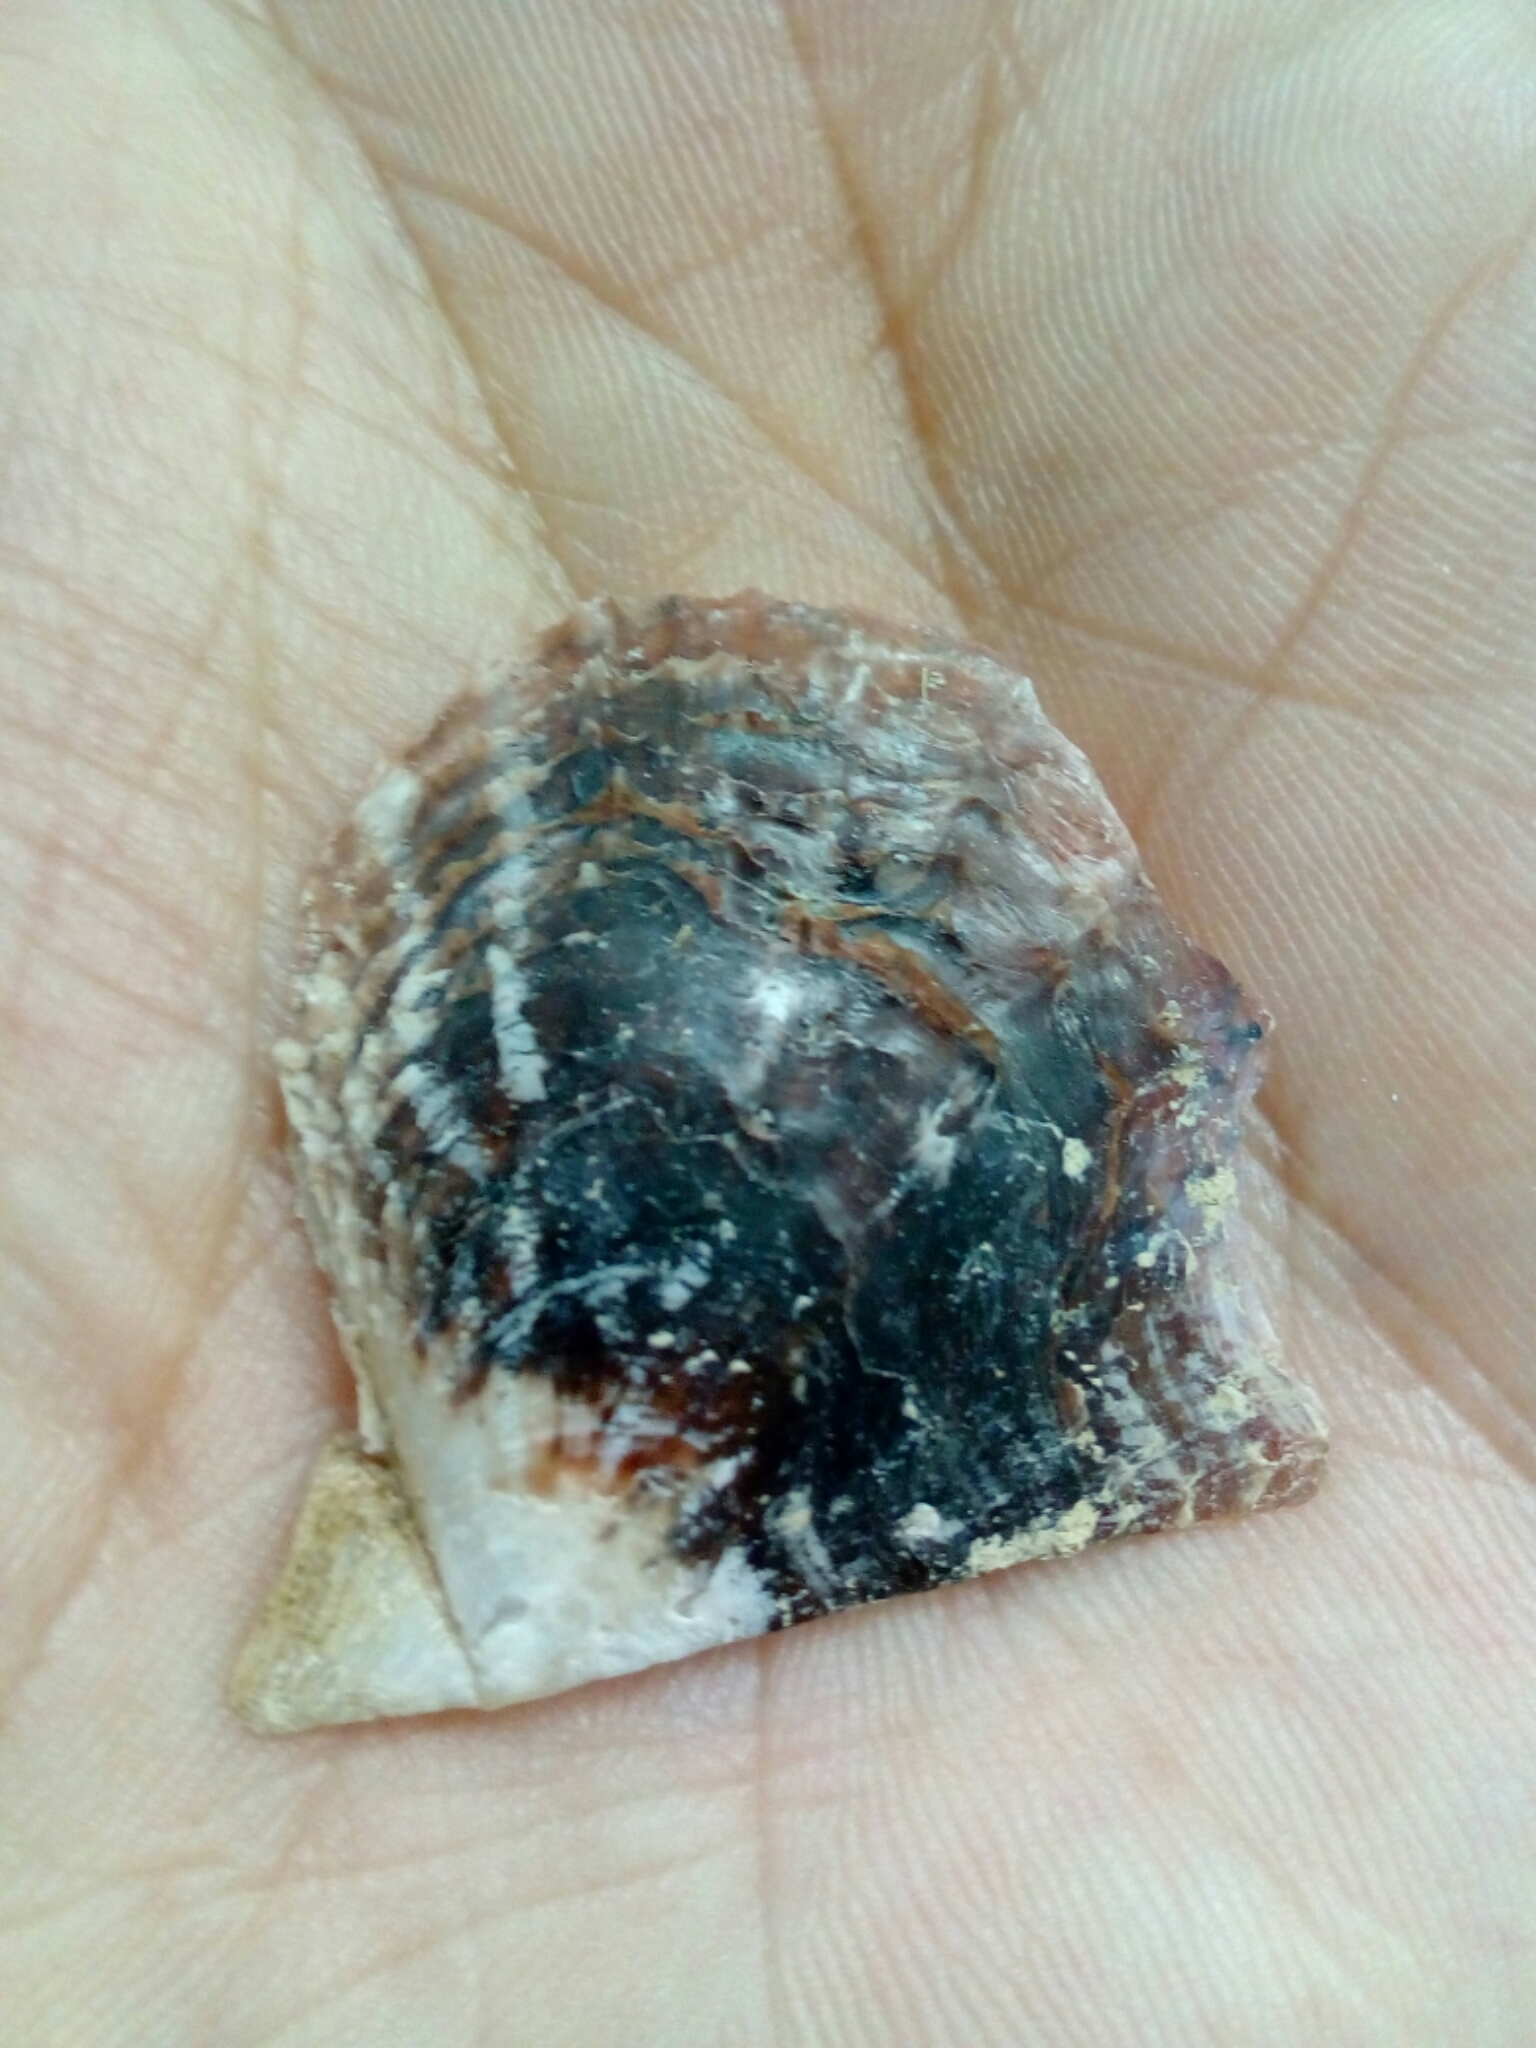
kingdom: Animalia
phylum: Mollusca
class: Bivalvia
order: Ostreida
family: Margaritidae
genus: Pinctada
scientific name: Pinctada imbricata
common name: Atlantic pearl-oyster
